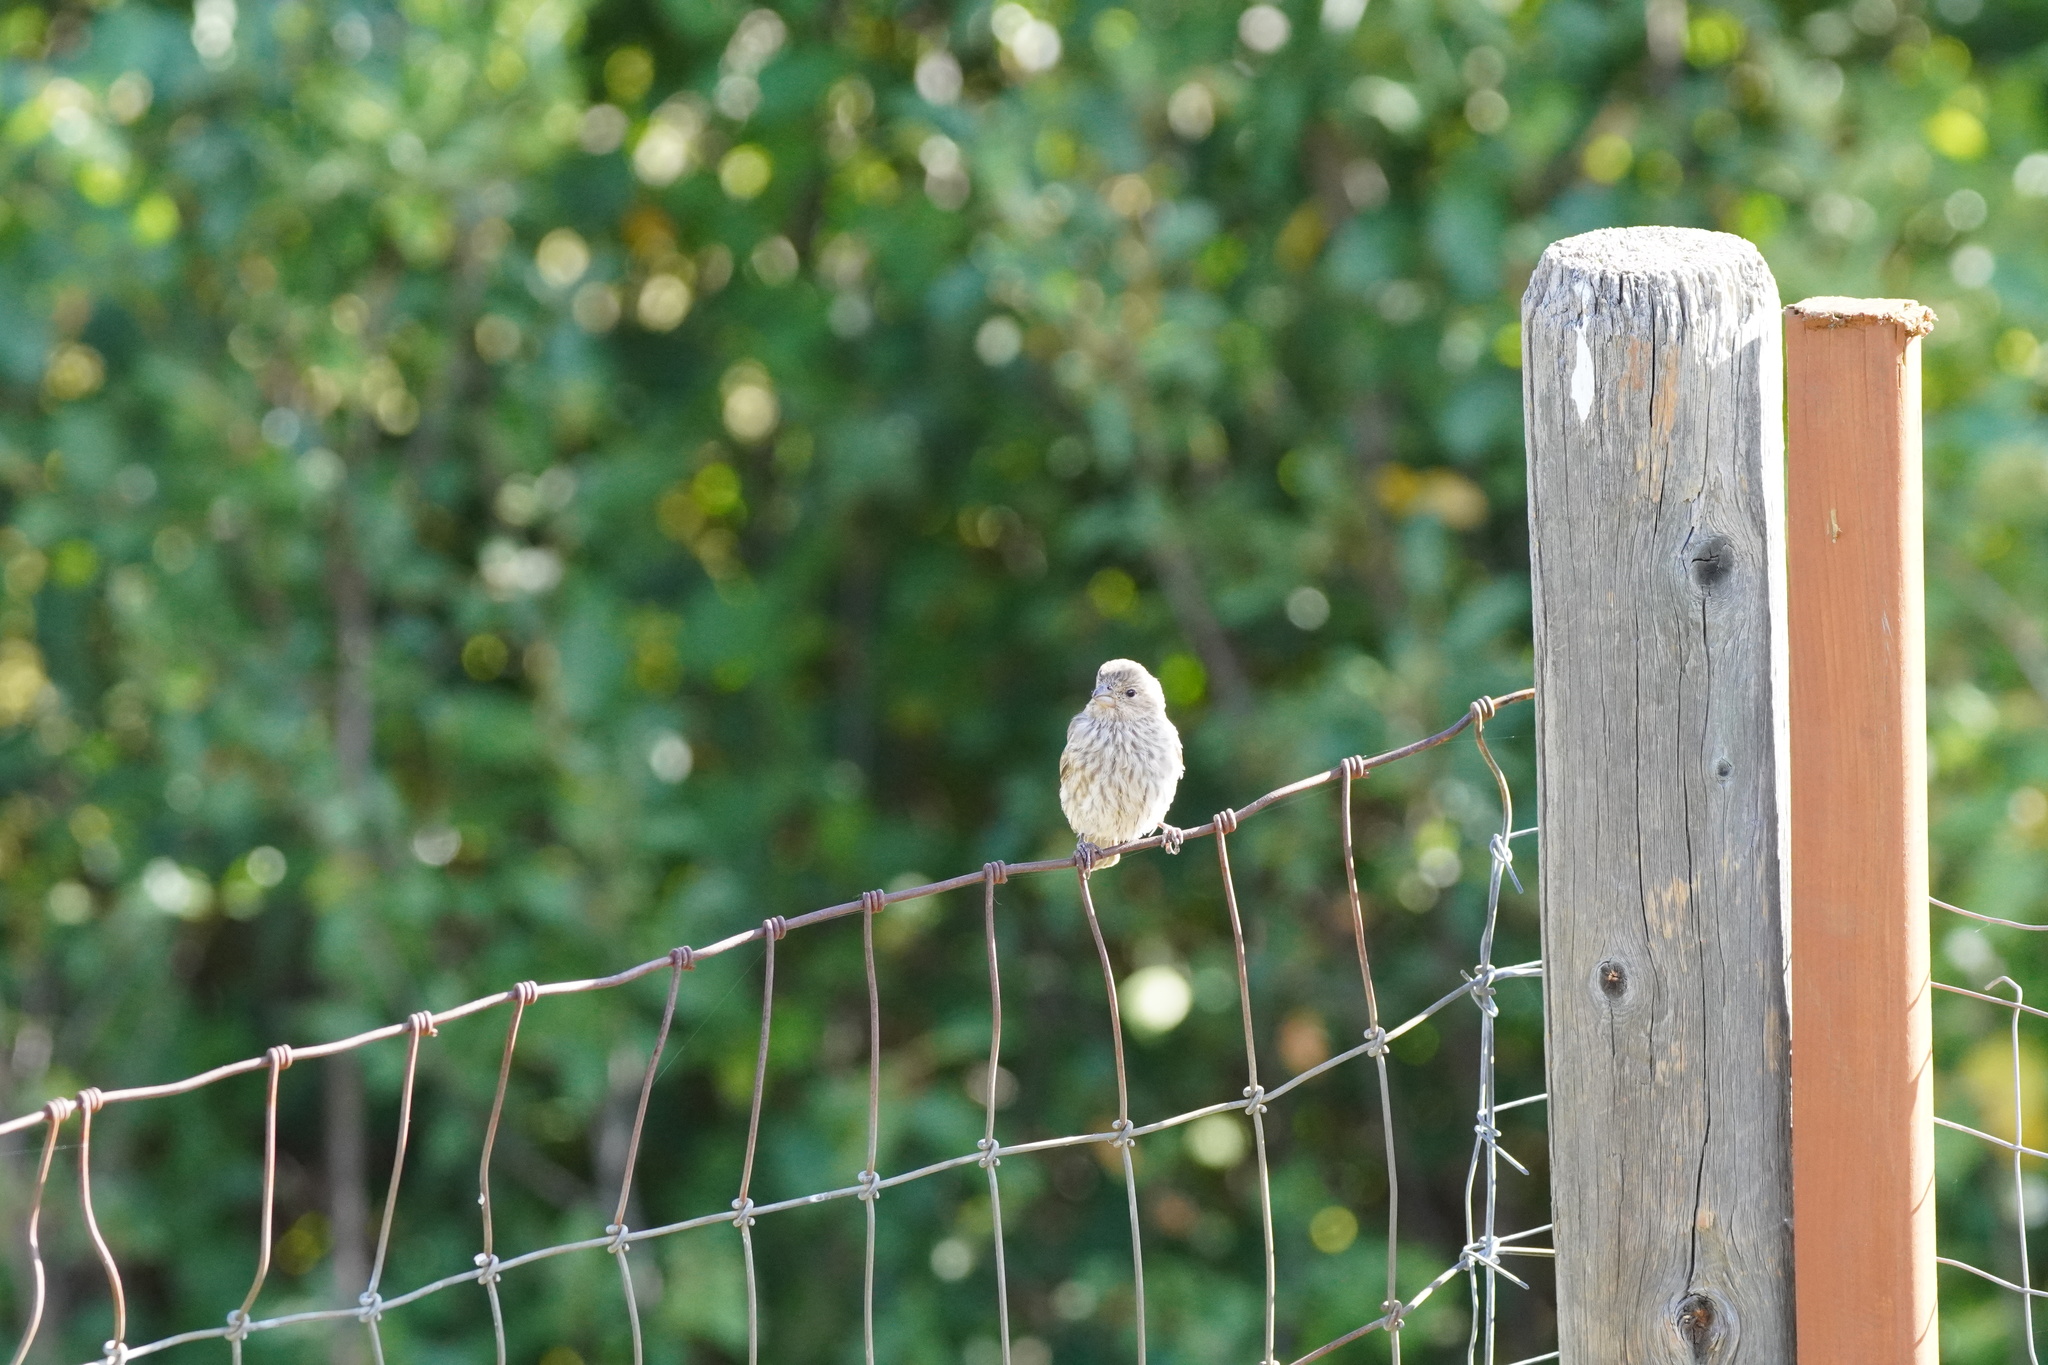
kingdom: Animalia
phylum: Chordata
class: Aves
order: Passeriformes
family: Fringillidae
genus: Haemorhous
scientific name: Haemorhous mexicanus
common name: House finch
